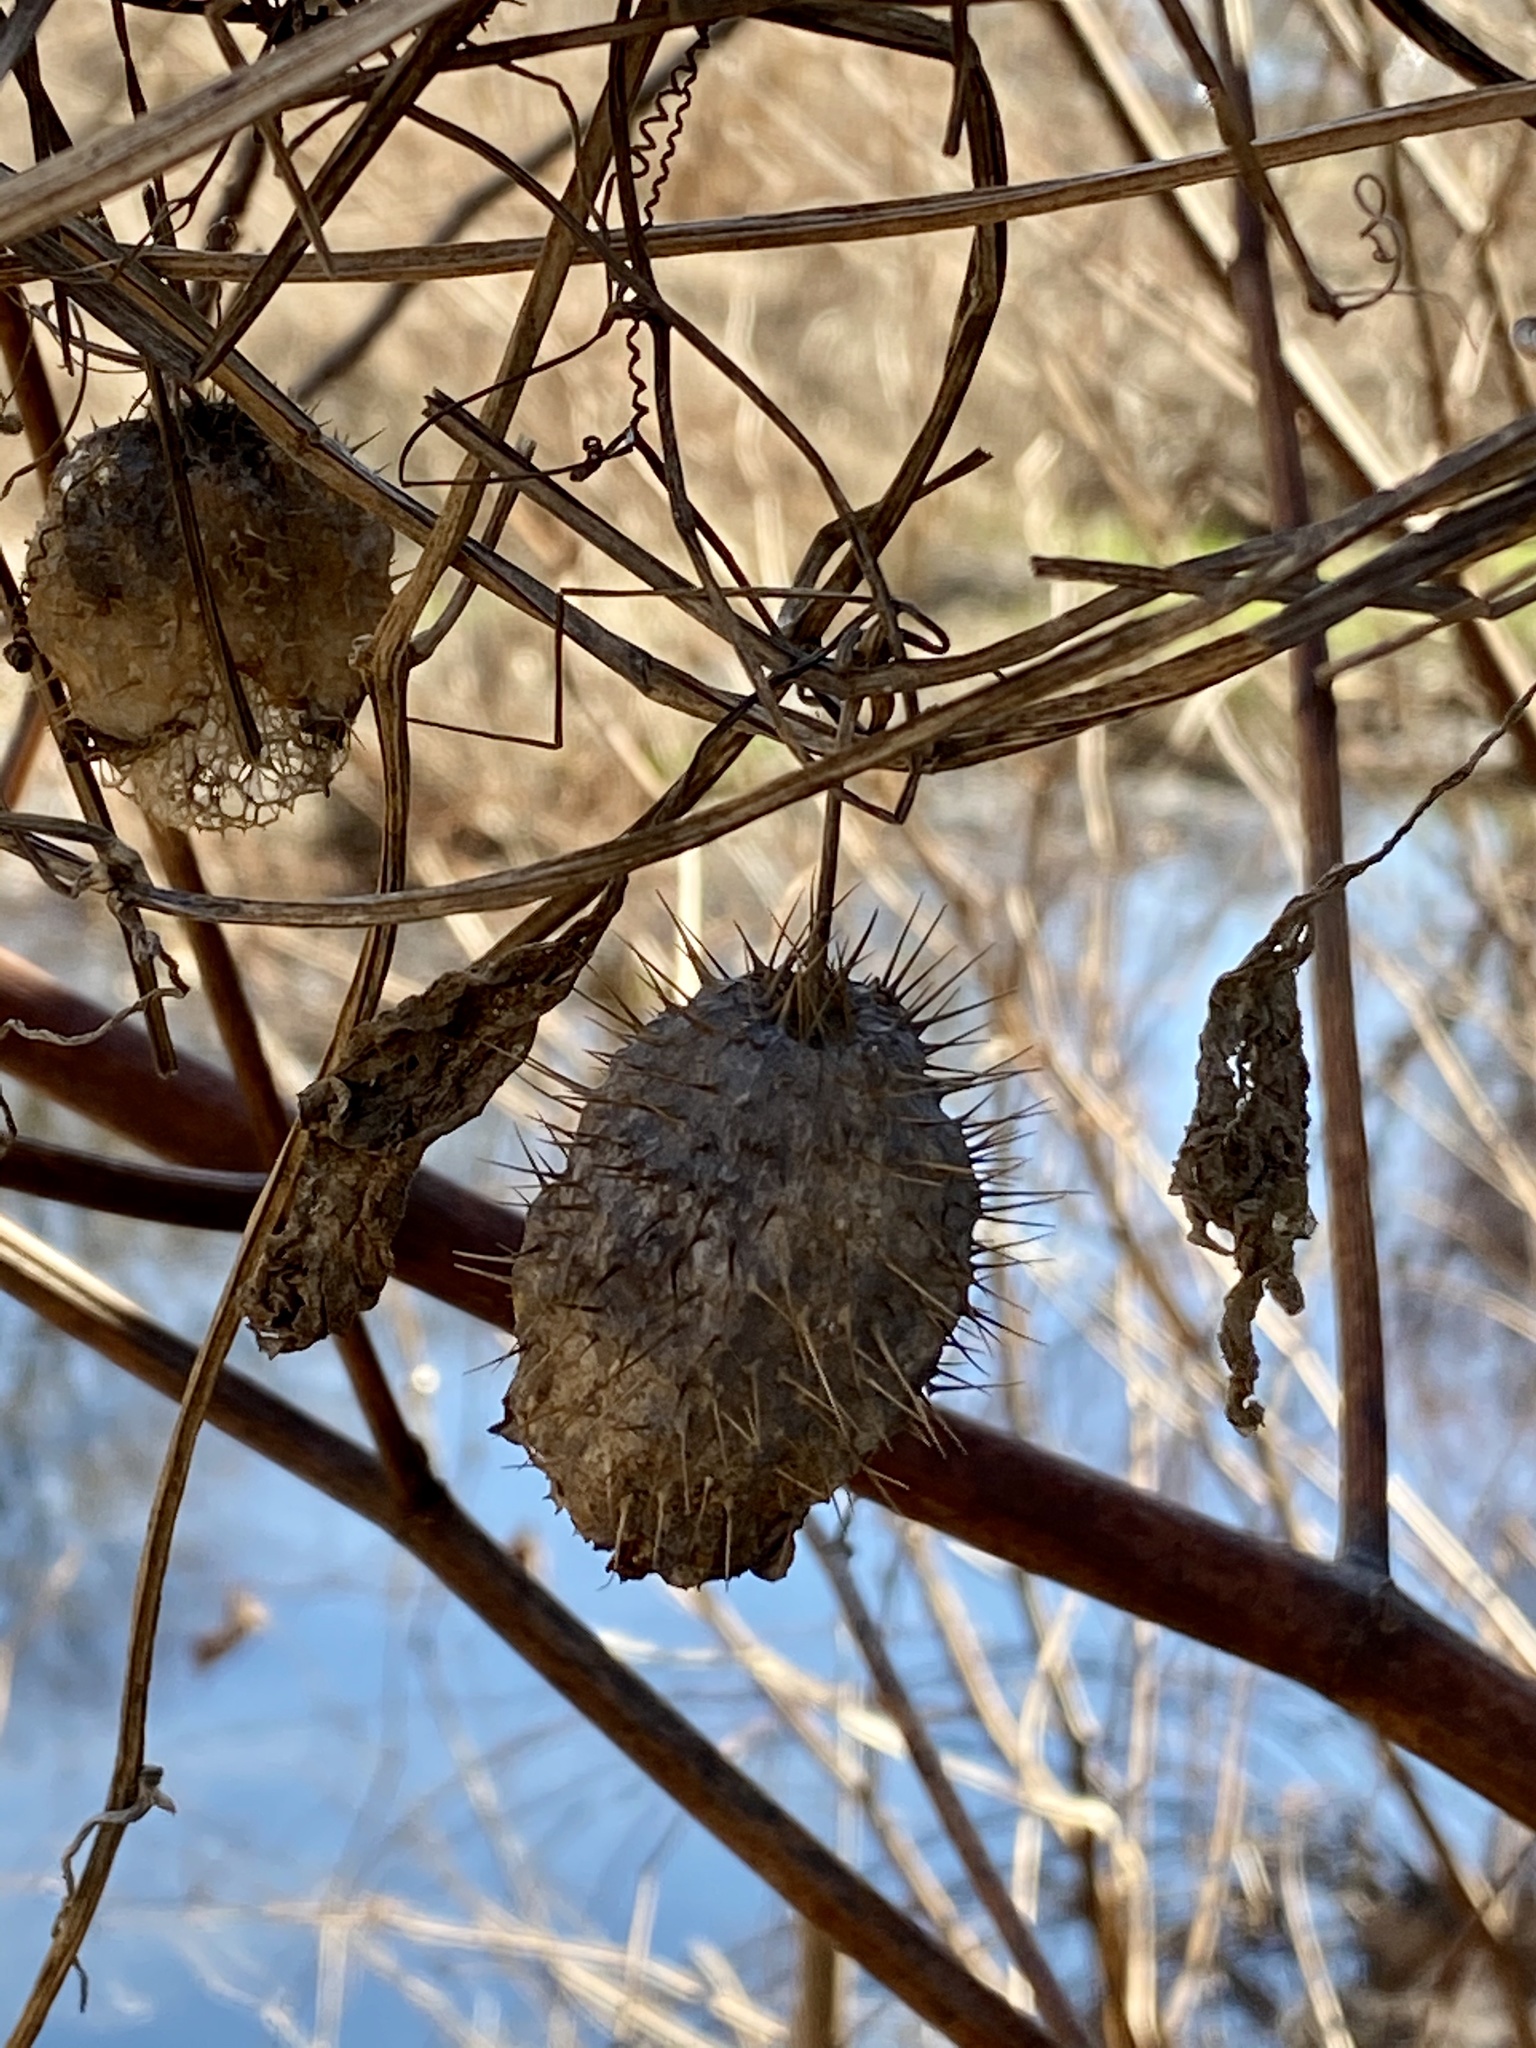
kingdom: Plantae
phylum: Tracheophyta
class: Magnoliopsida
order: Cucurbitales
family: Cucurbitaceae
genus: Echinocystis
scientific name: Echinocystis lobata
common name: Wild cucumber
